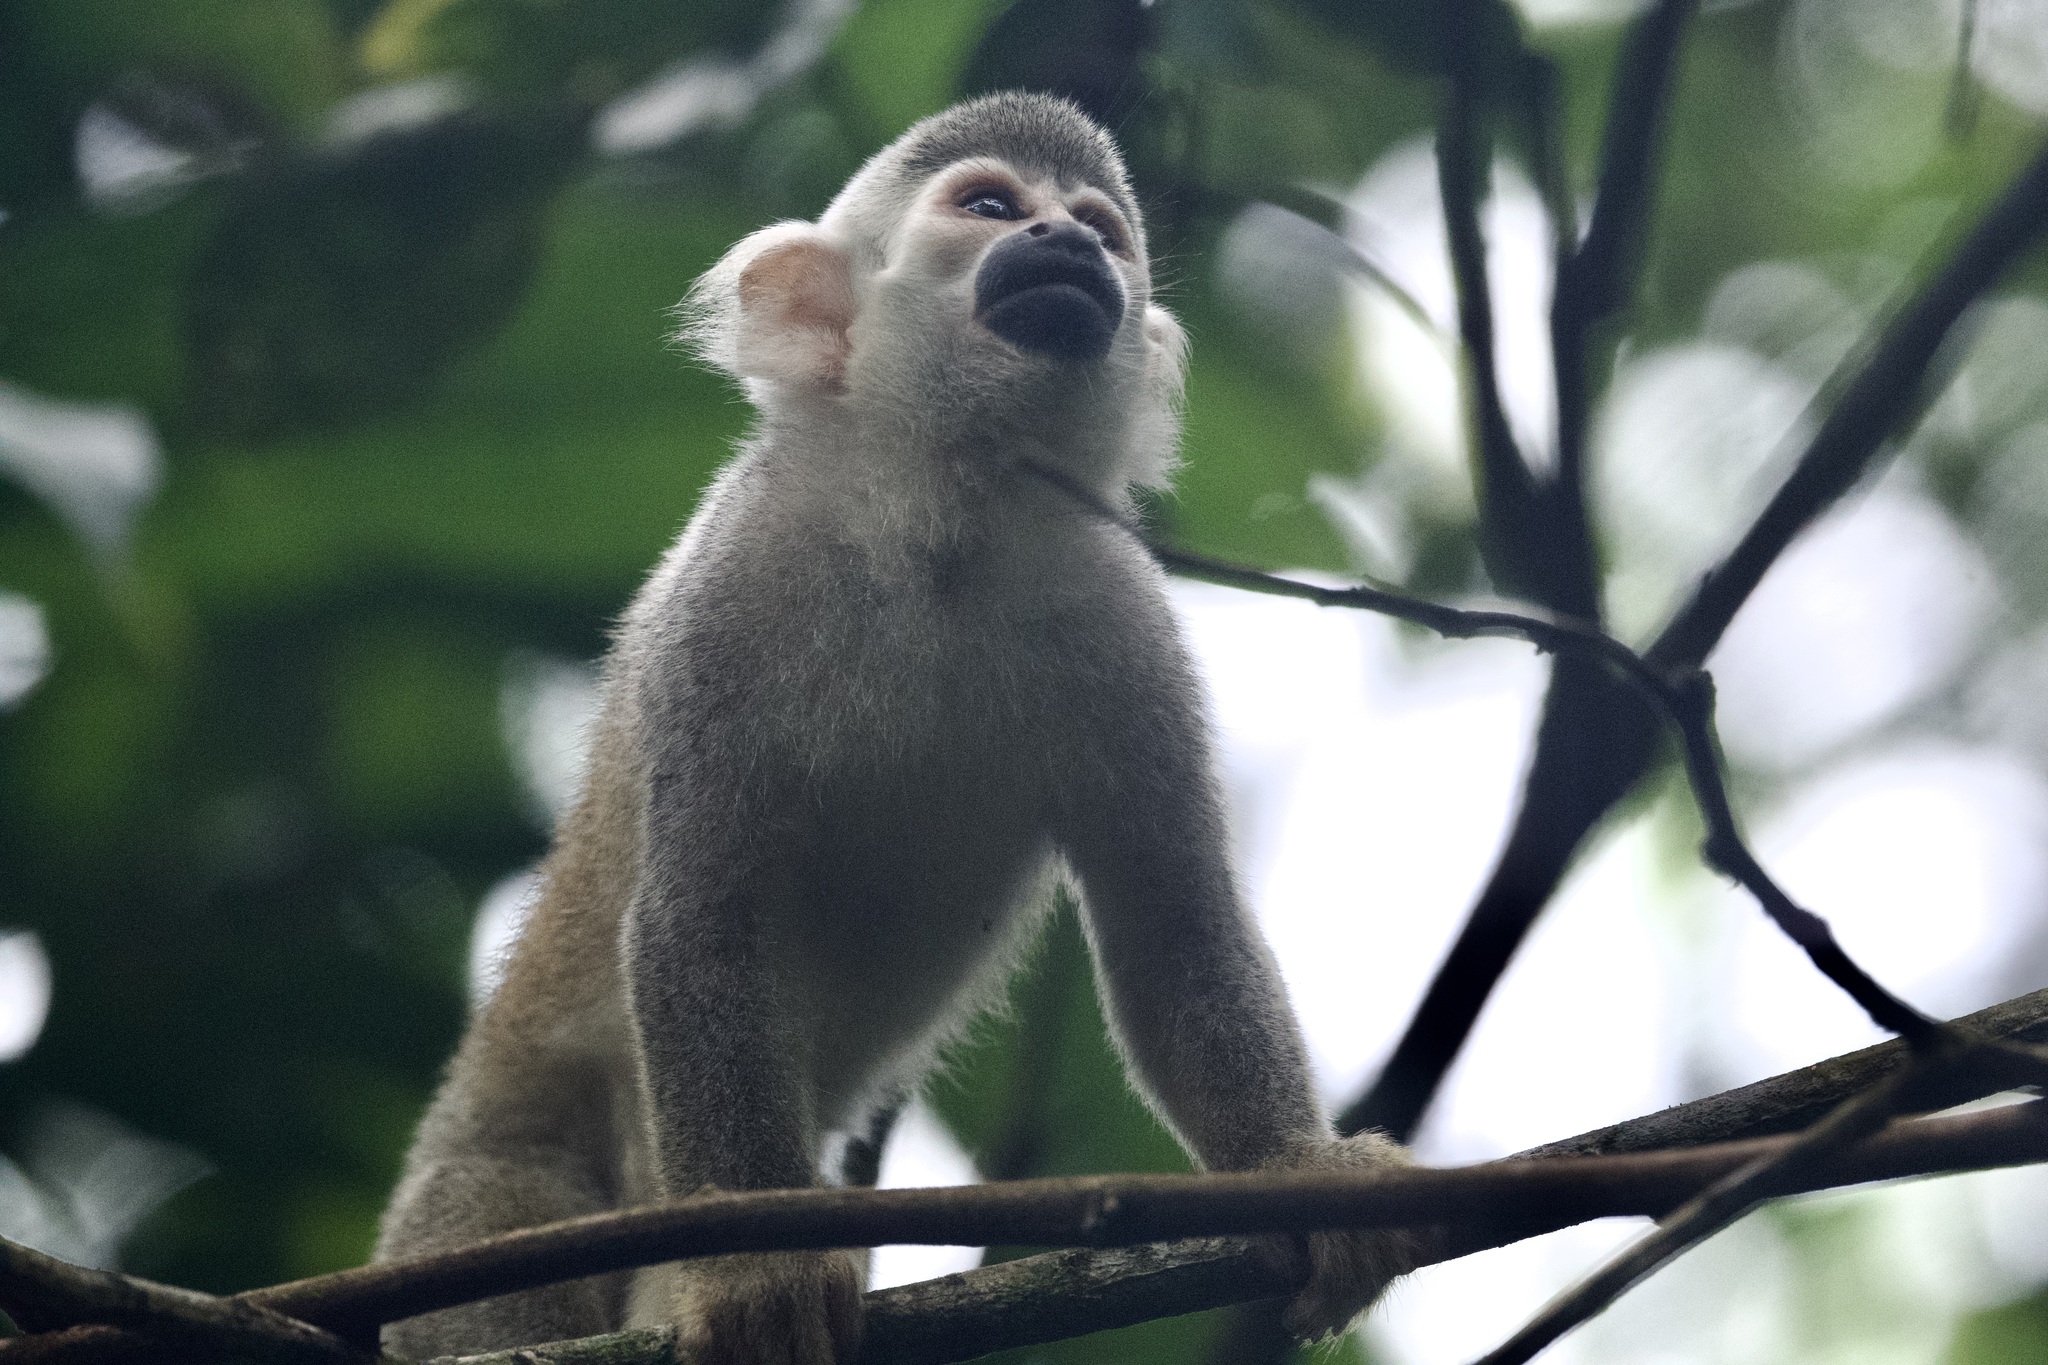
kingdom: Animalia
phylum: Chordata
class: Mammalia
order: Primates
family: Cebidae
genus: Saimiri
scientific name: Saimiri cassiquiarensis
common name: Humboldt’s squirrel monkey
